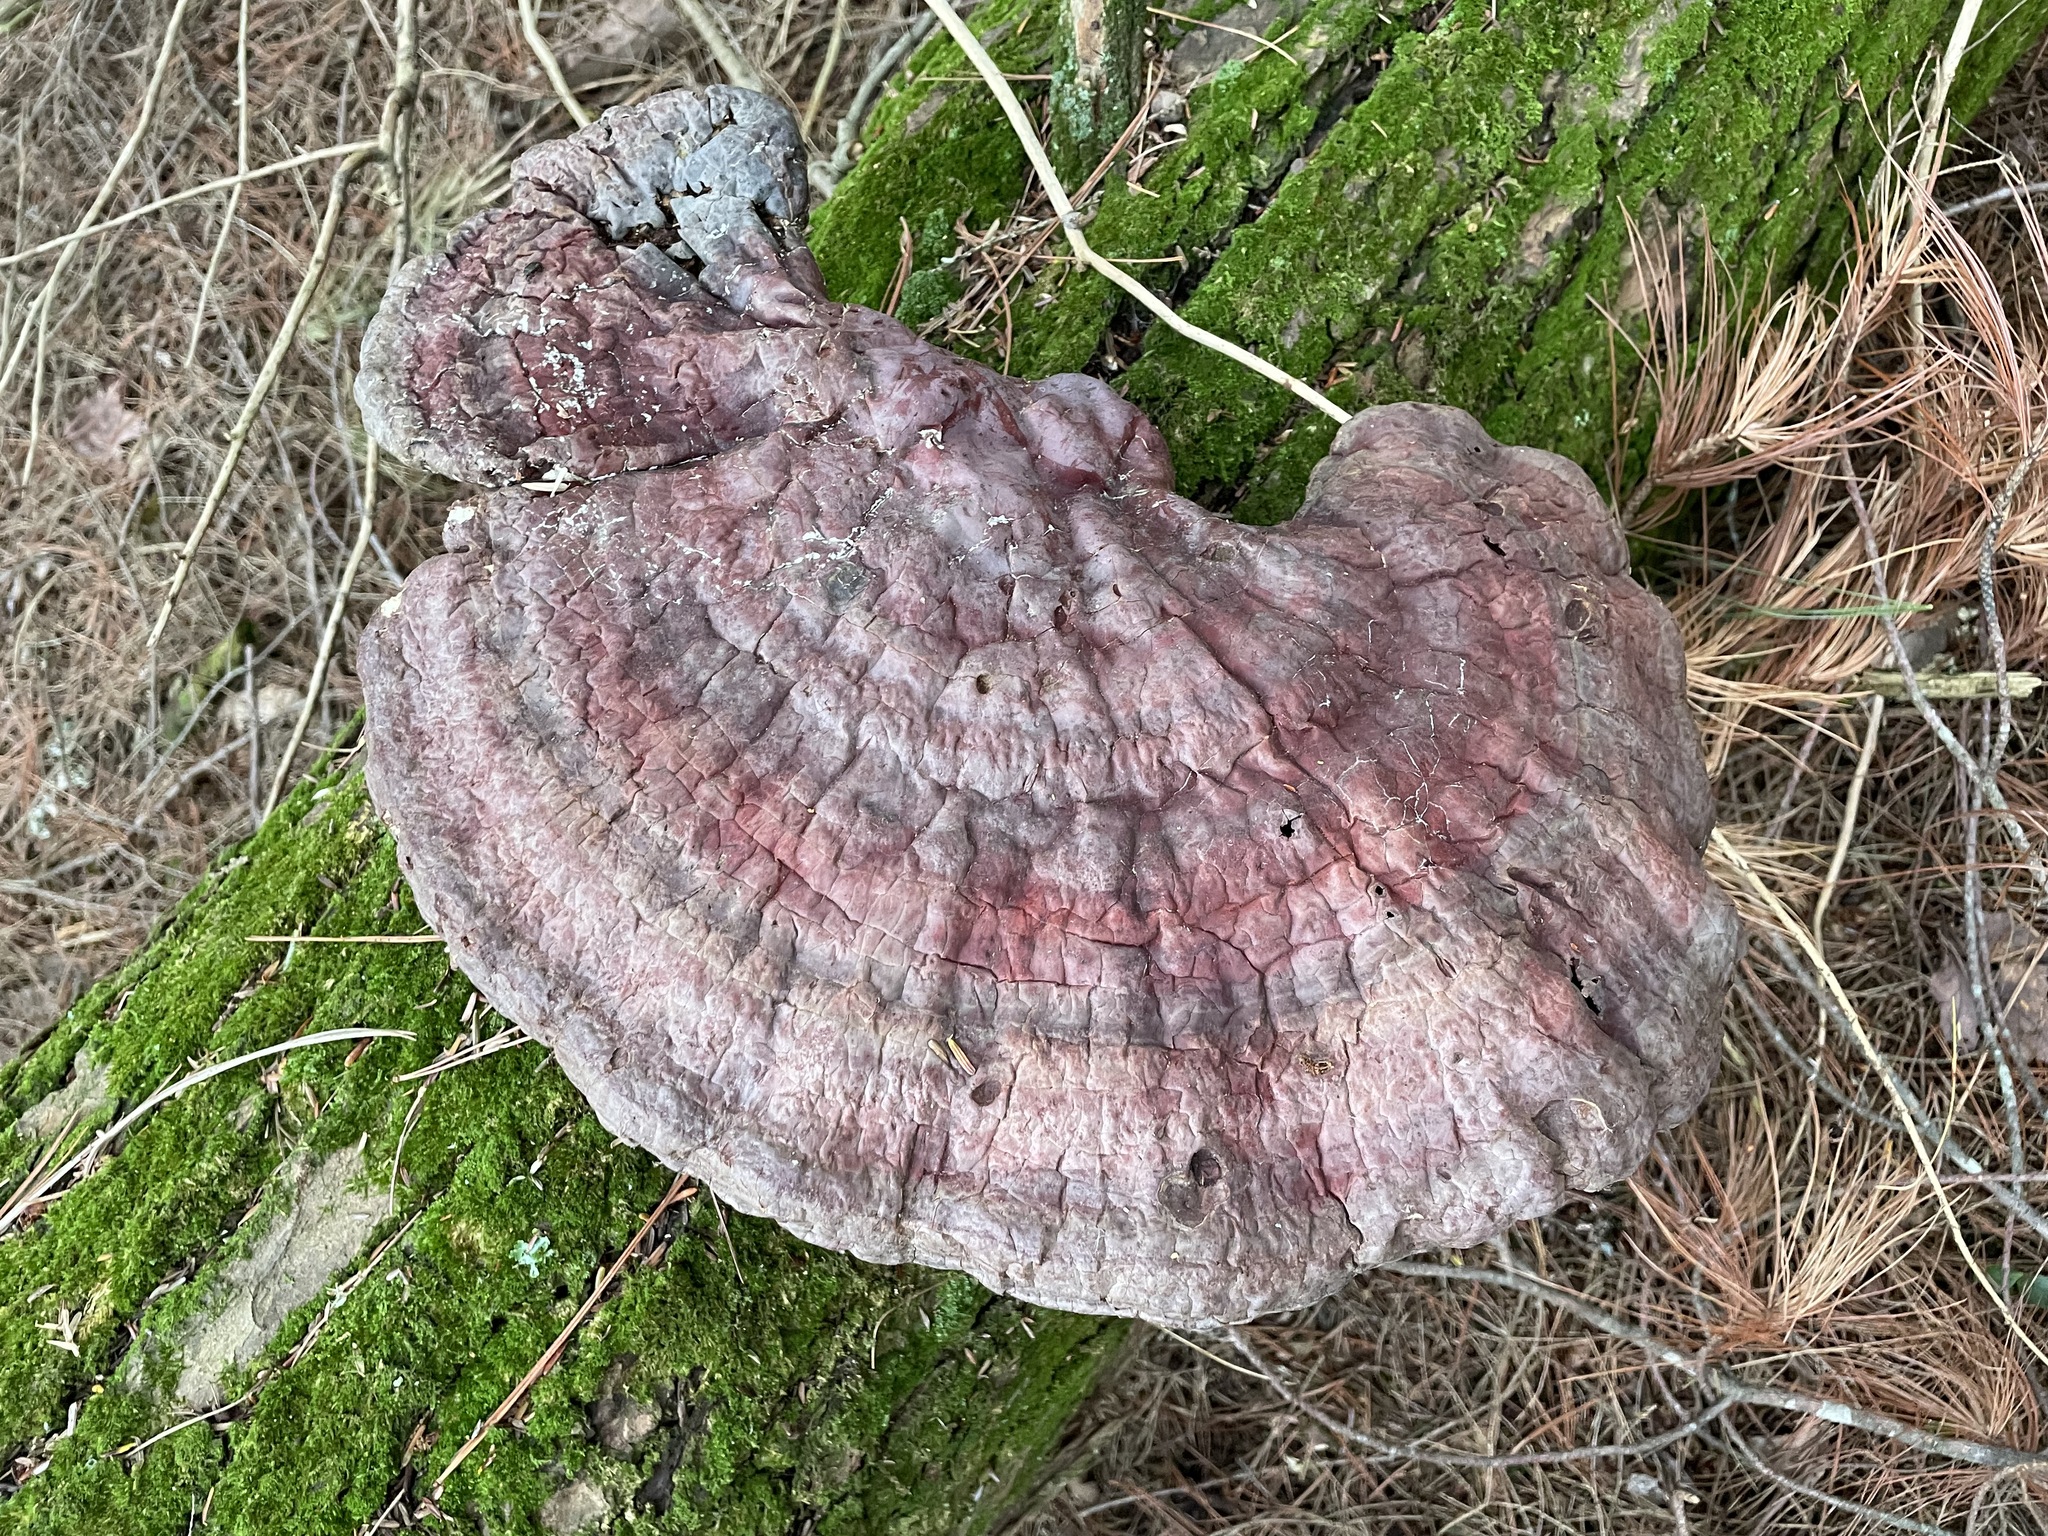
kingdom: Fungi
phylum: Basidiomycota
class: Agaricomycetes
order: Polyporales
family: Polyporaceae
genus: Ganoderma
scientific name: Ganoderma tsugae
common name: Hemlock varnish shelf
